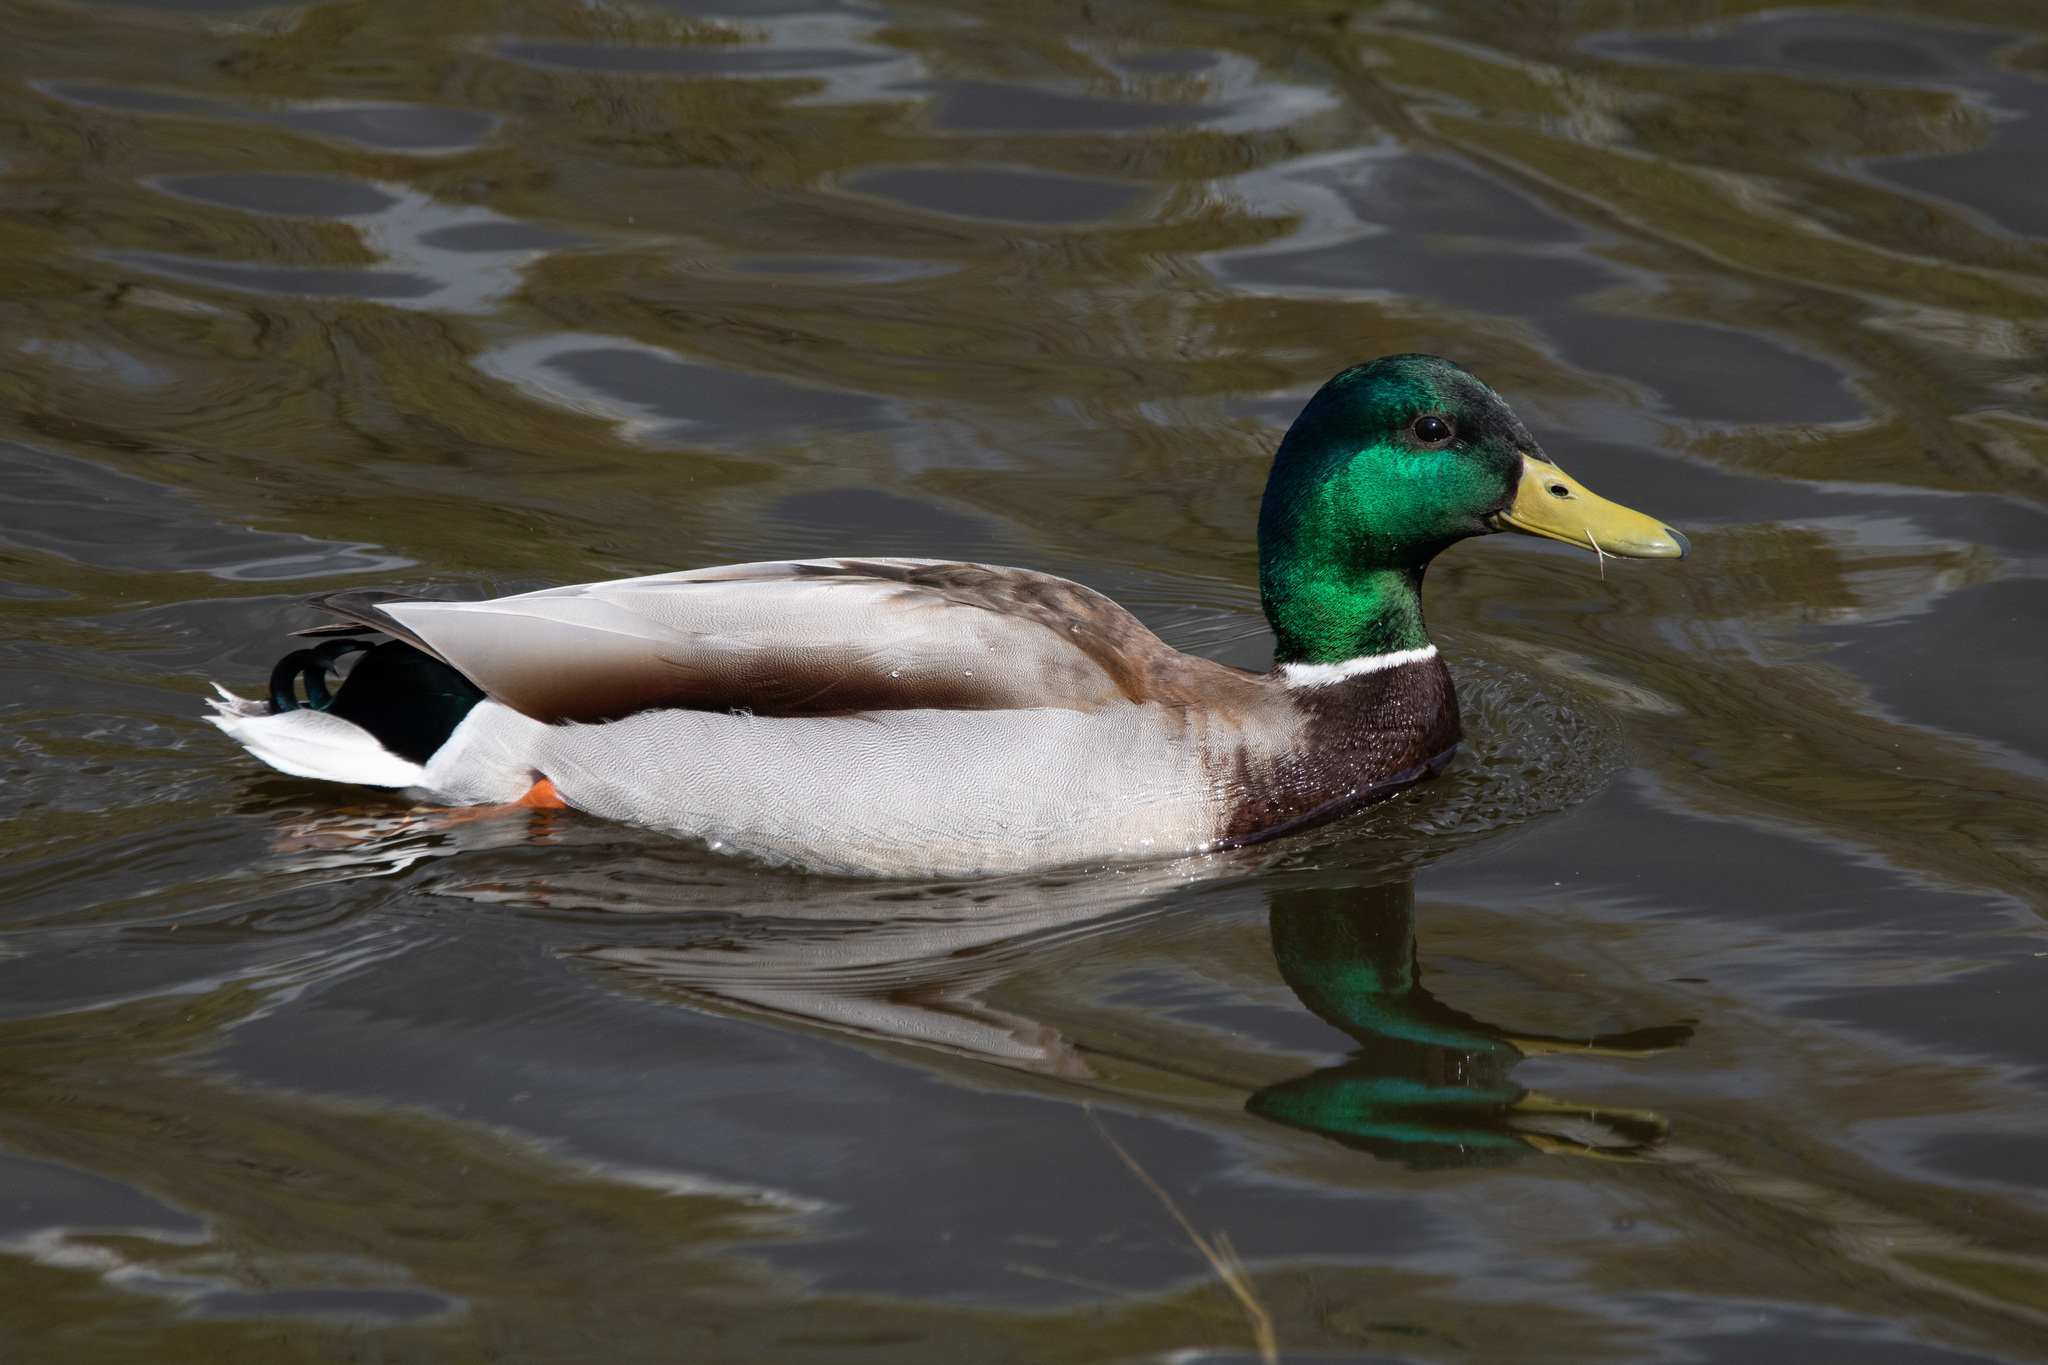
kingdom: Animalia
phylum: Chordata
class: Aves
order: Anseriformes
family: Anatidae
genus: Anas
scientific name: Anas platyrhynchos
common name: Mallard
